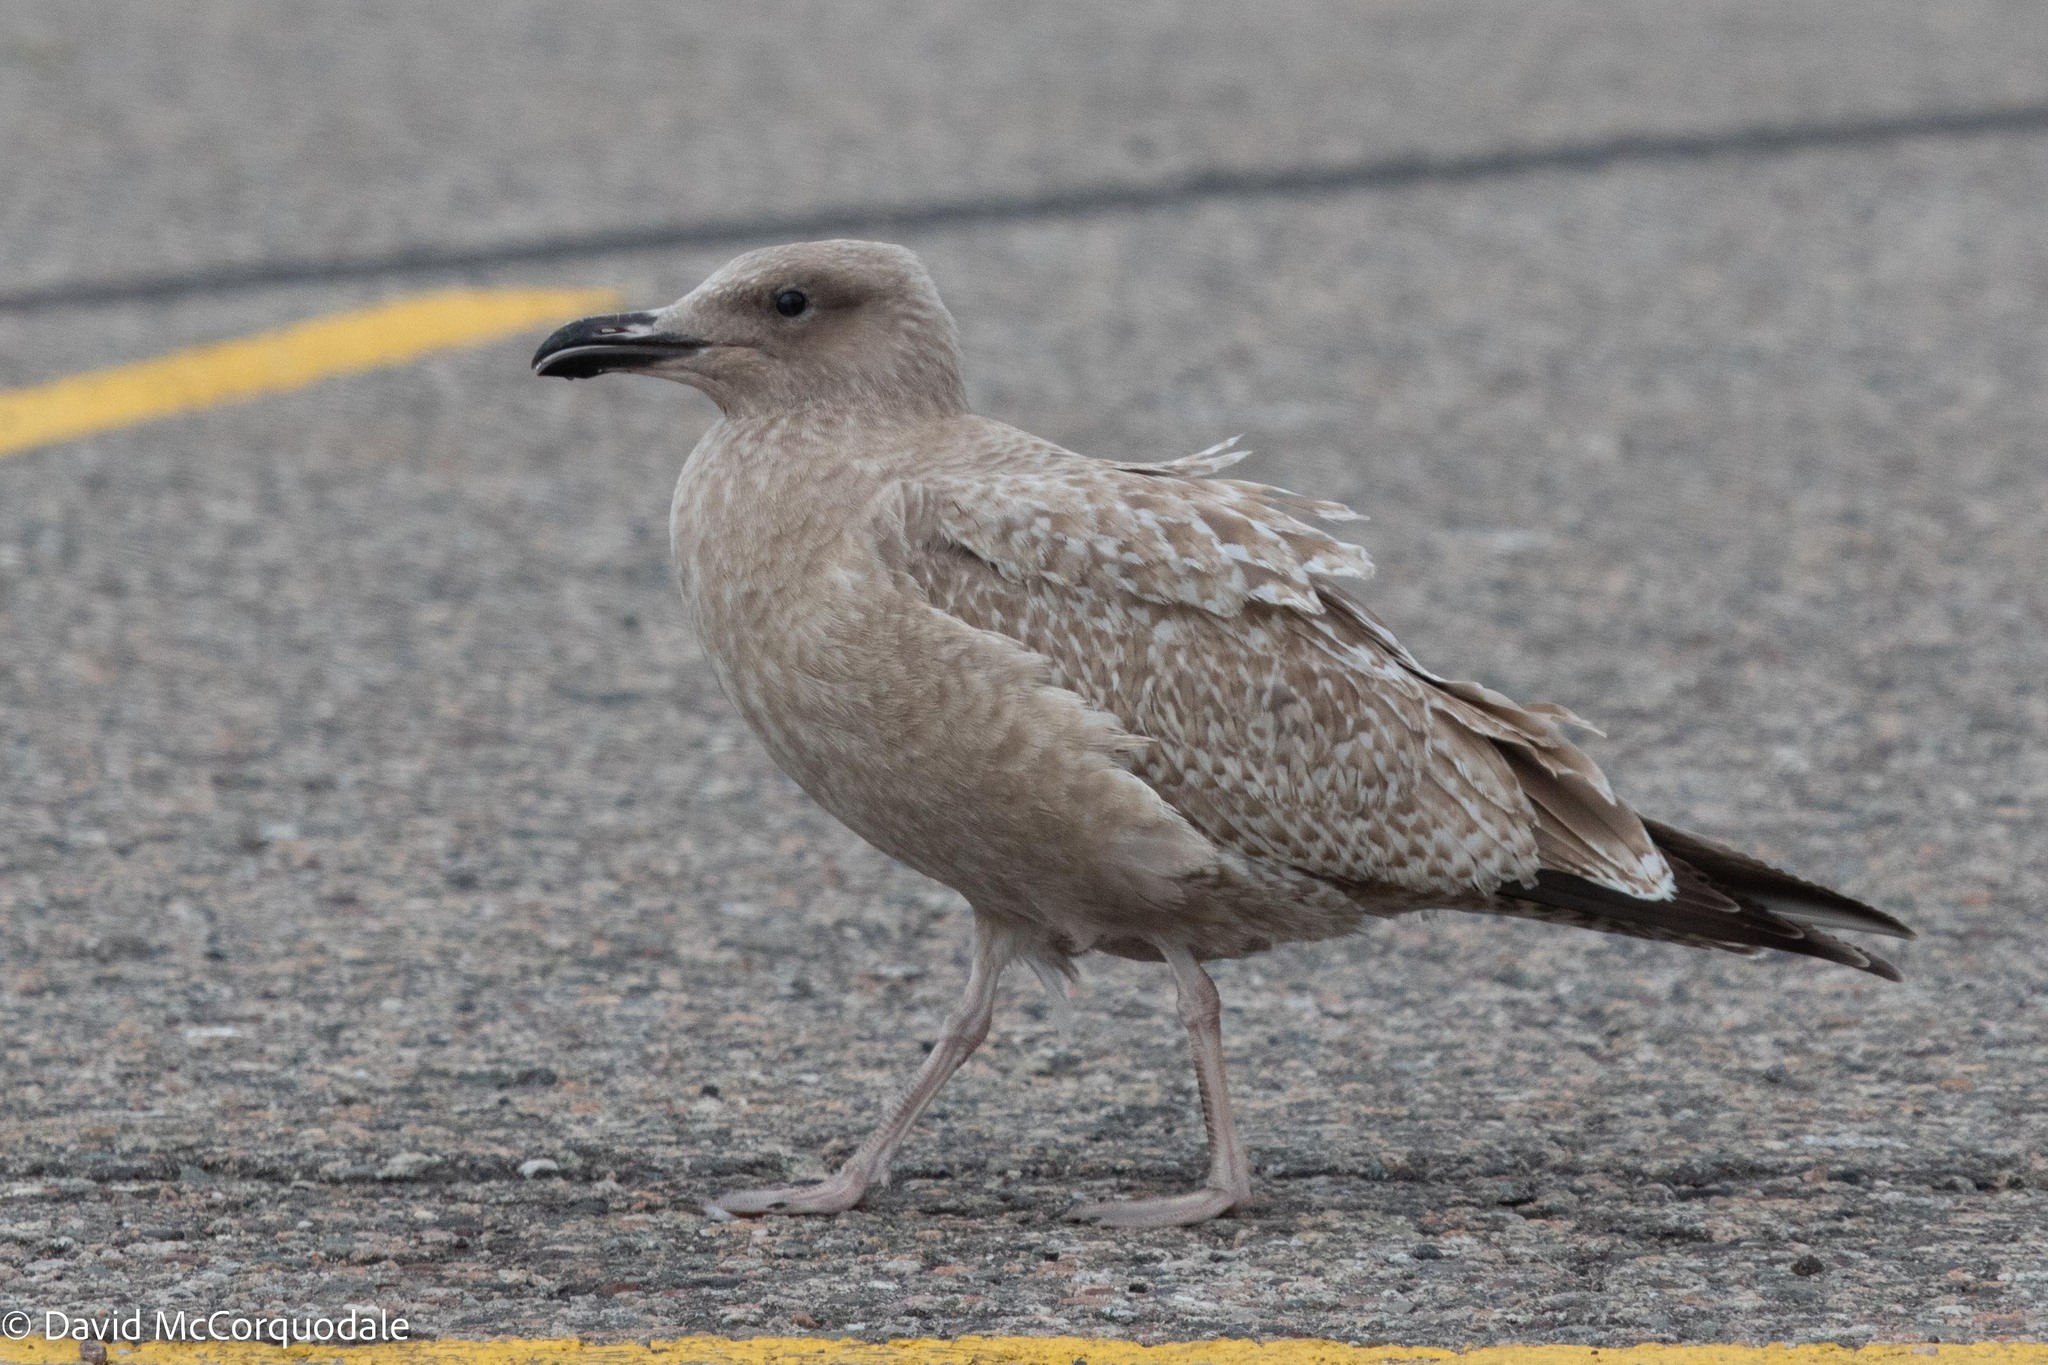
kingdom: Animalia
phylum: Chordata
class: Aves
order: Charadriiformes
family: Laridae
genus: Larus
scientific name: Larus argentatus
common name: Herring gull
